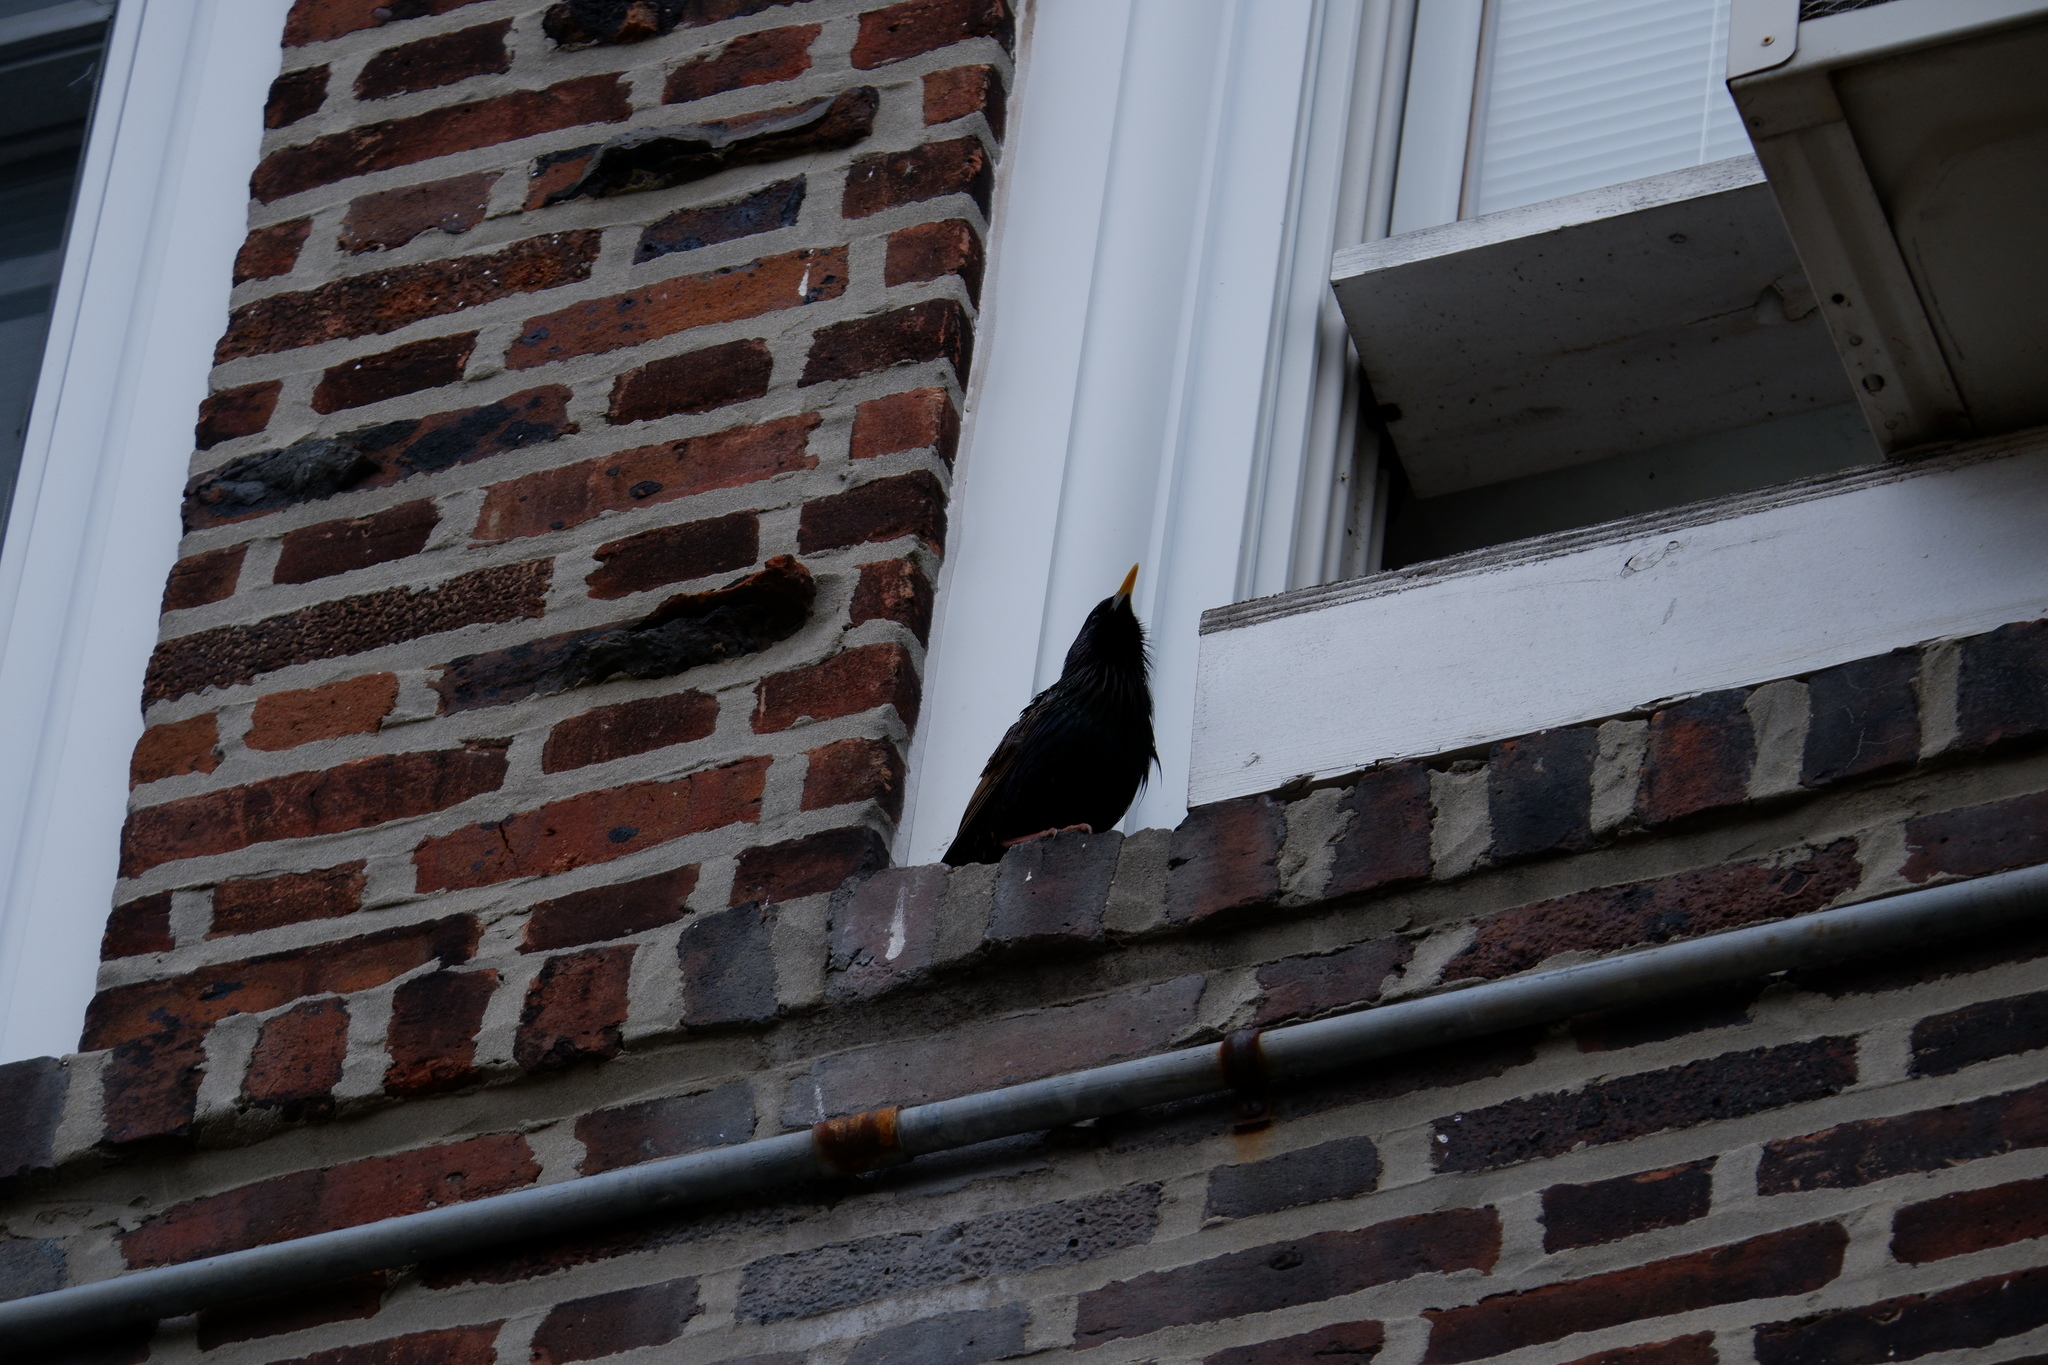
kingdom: Animalia
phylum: Chordata
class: Aves
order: Passeriformes
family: Sturnidae
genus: Sturnus
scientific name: Sturnus vulgaris
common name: Common starling
